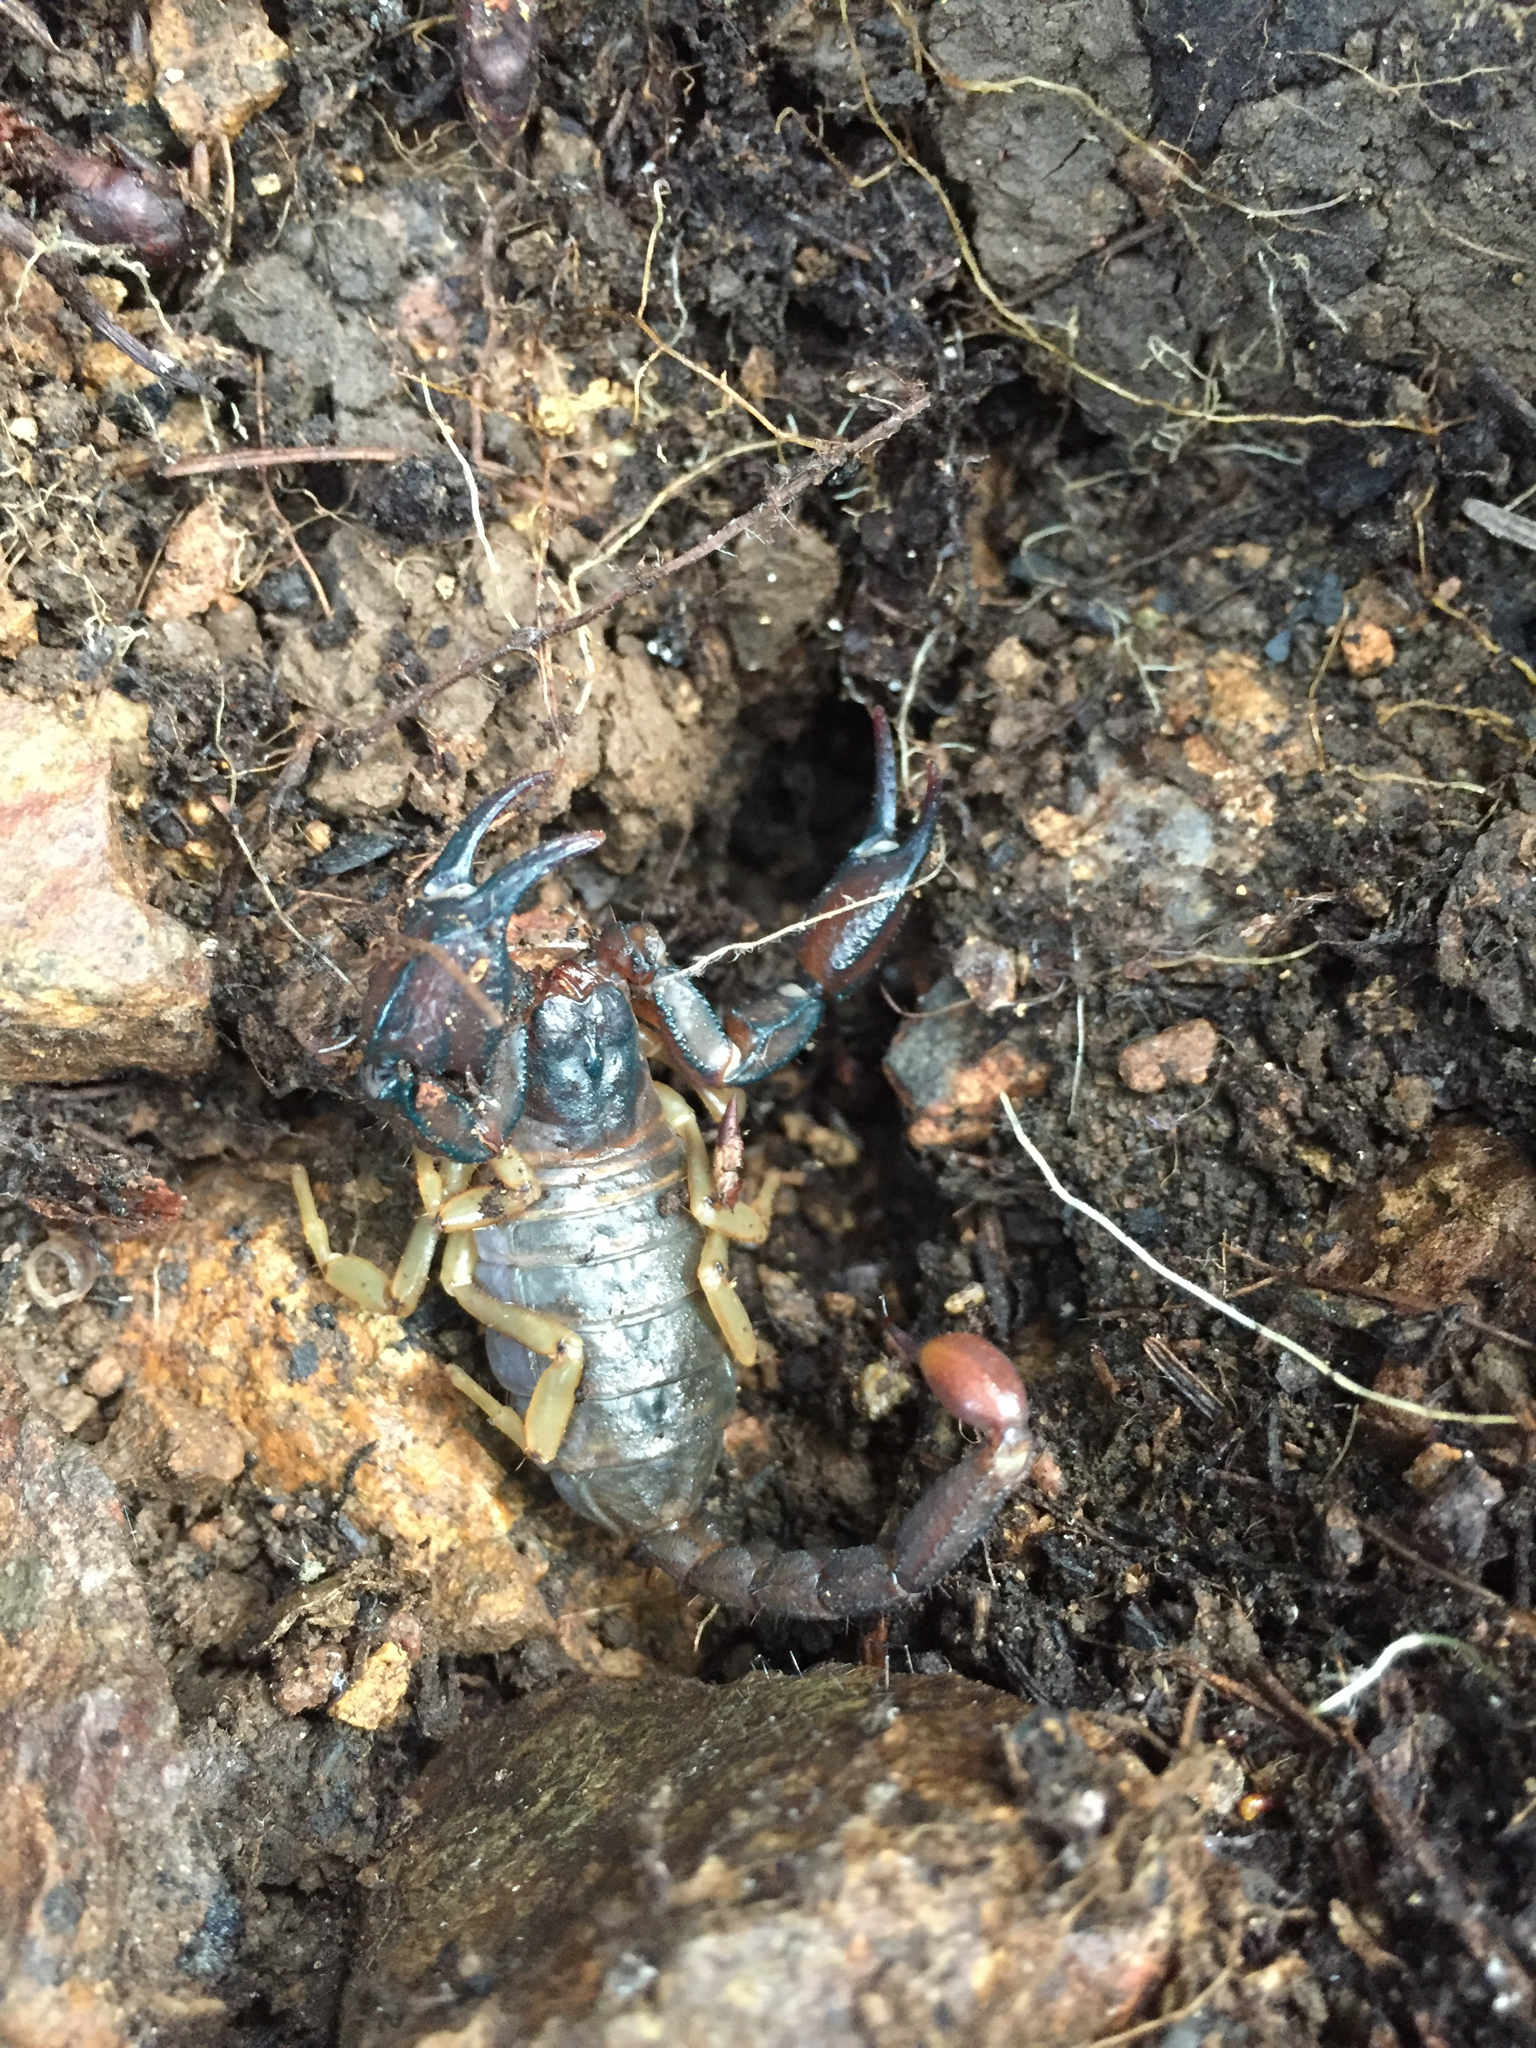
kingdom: Animalia
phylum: Arthropoda
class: Arachnida
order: Scorpiones
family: Chactidae
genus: Uroctonus
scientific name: Uroctonus mordax
